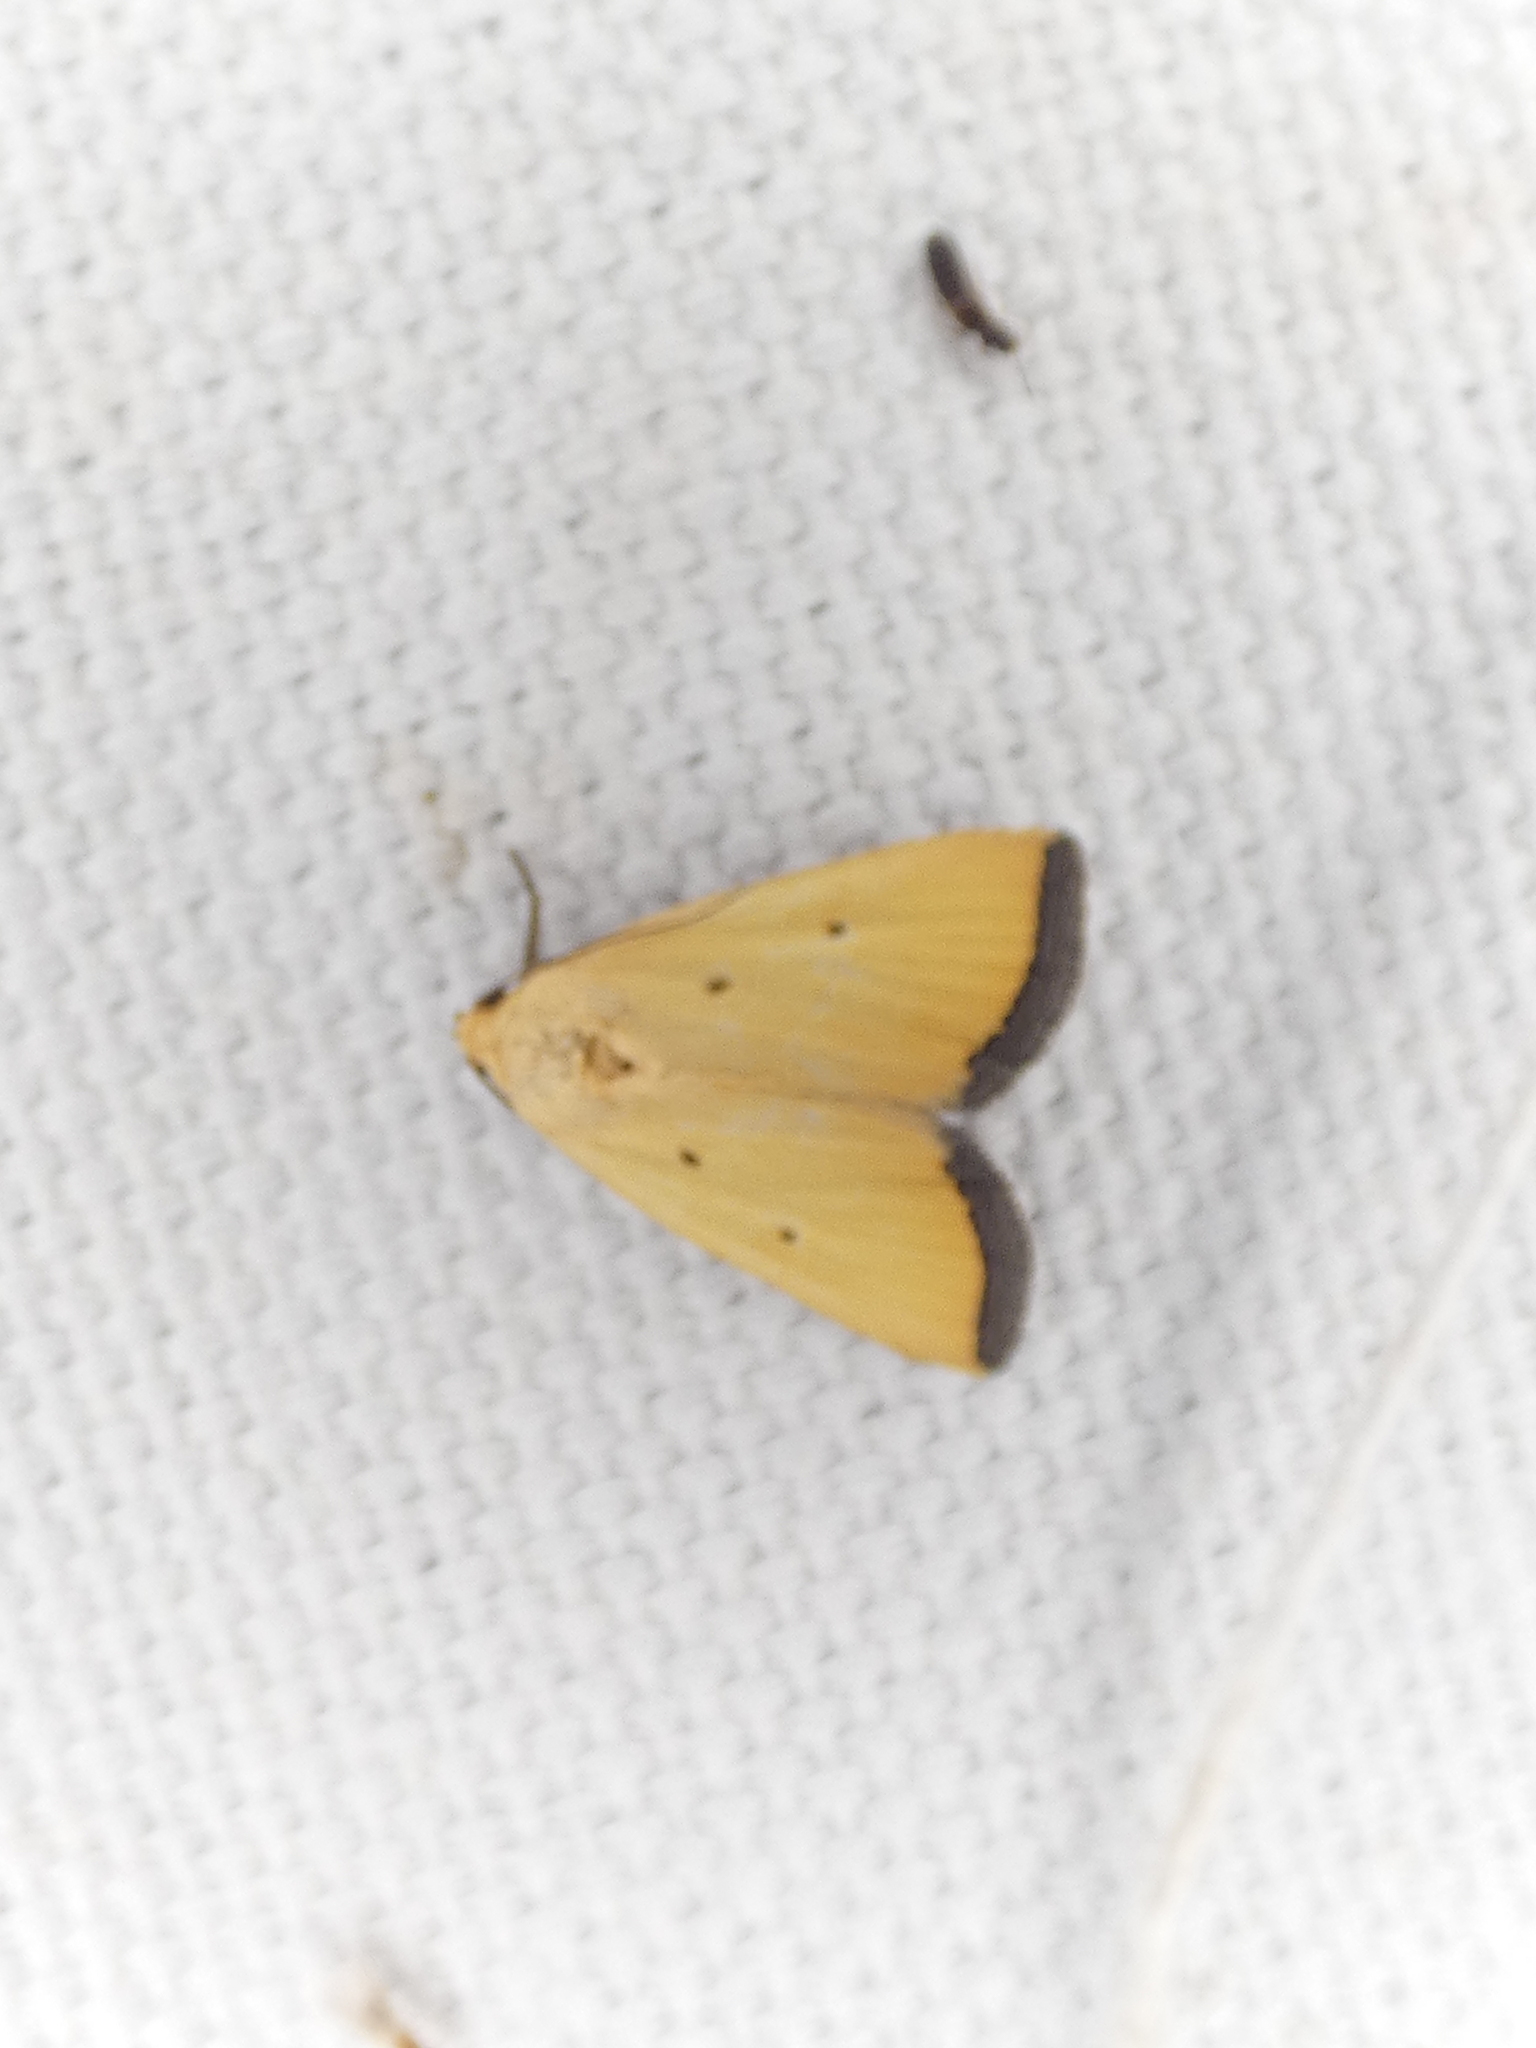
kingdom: Animalia
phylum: Arthropoda
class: Insecta
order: Lepidoptera
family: Noctuidae
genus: Marimatha
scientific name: Marimatha nigrofimbria
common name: Black-bordered lemon moth
